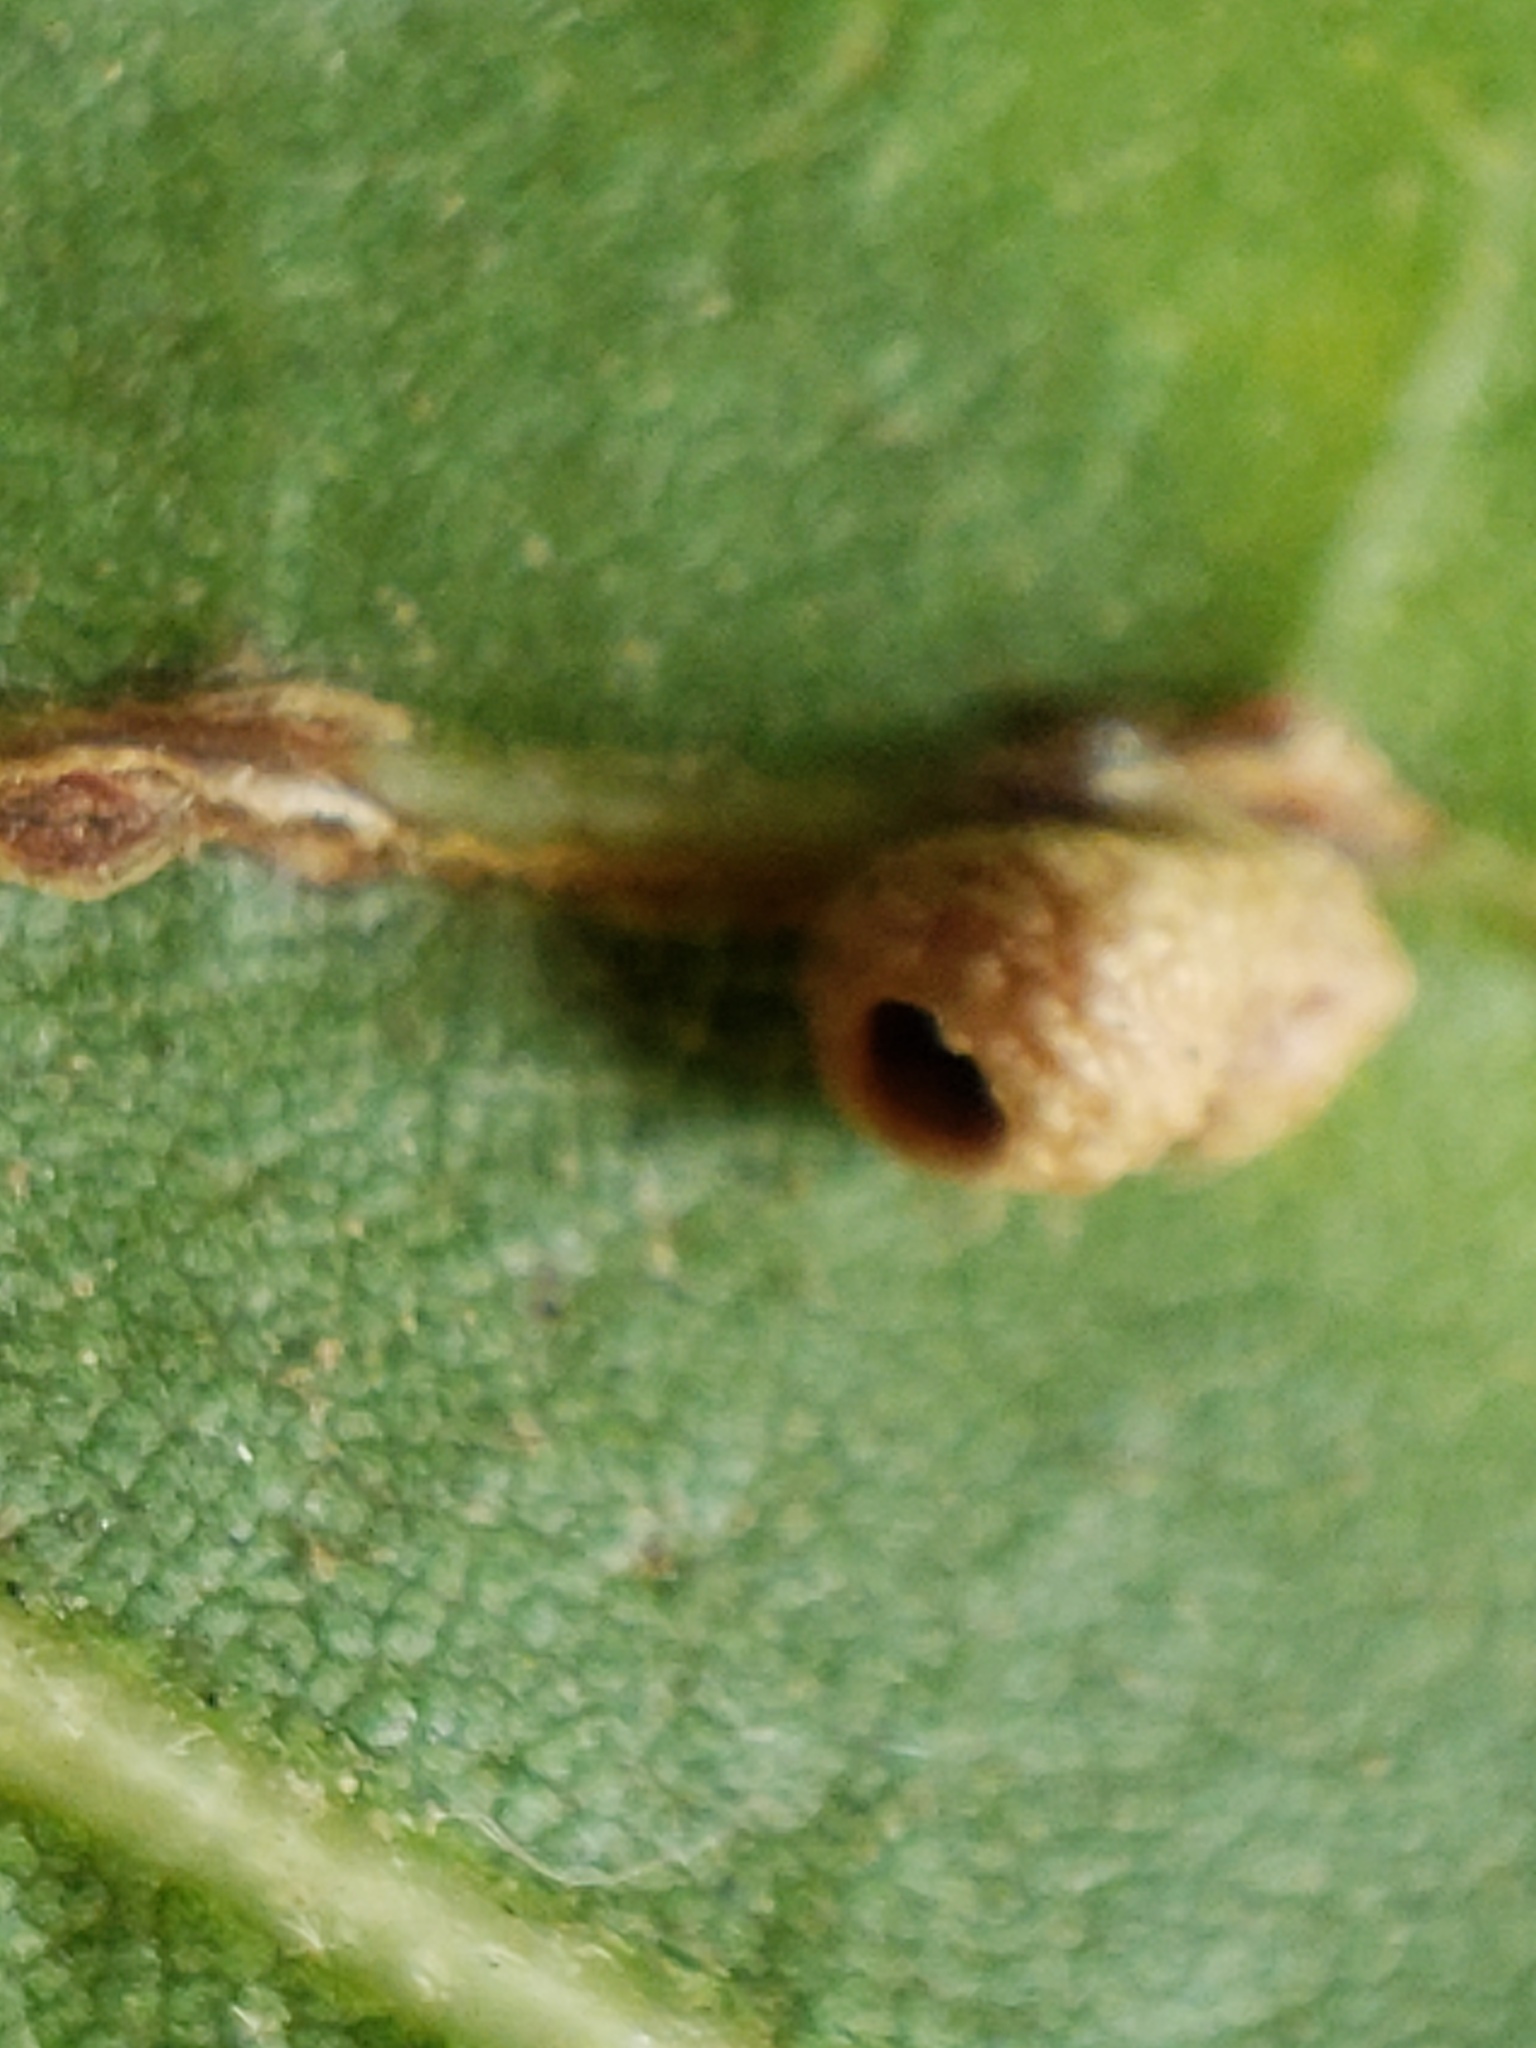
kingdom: Animalia
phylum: Arthropoda
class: Insecta
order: Hymenoptera
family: Cynipidae
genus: Dryocosmus
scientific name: Dryocosmus
